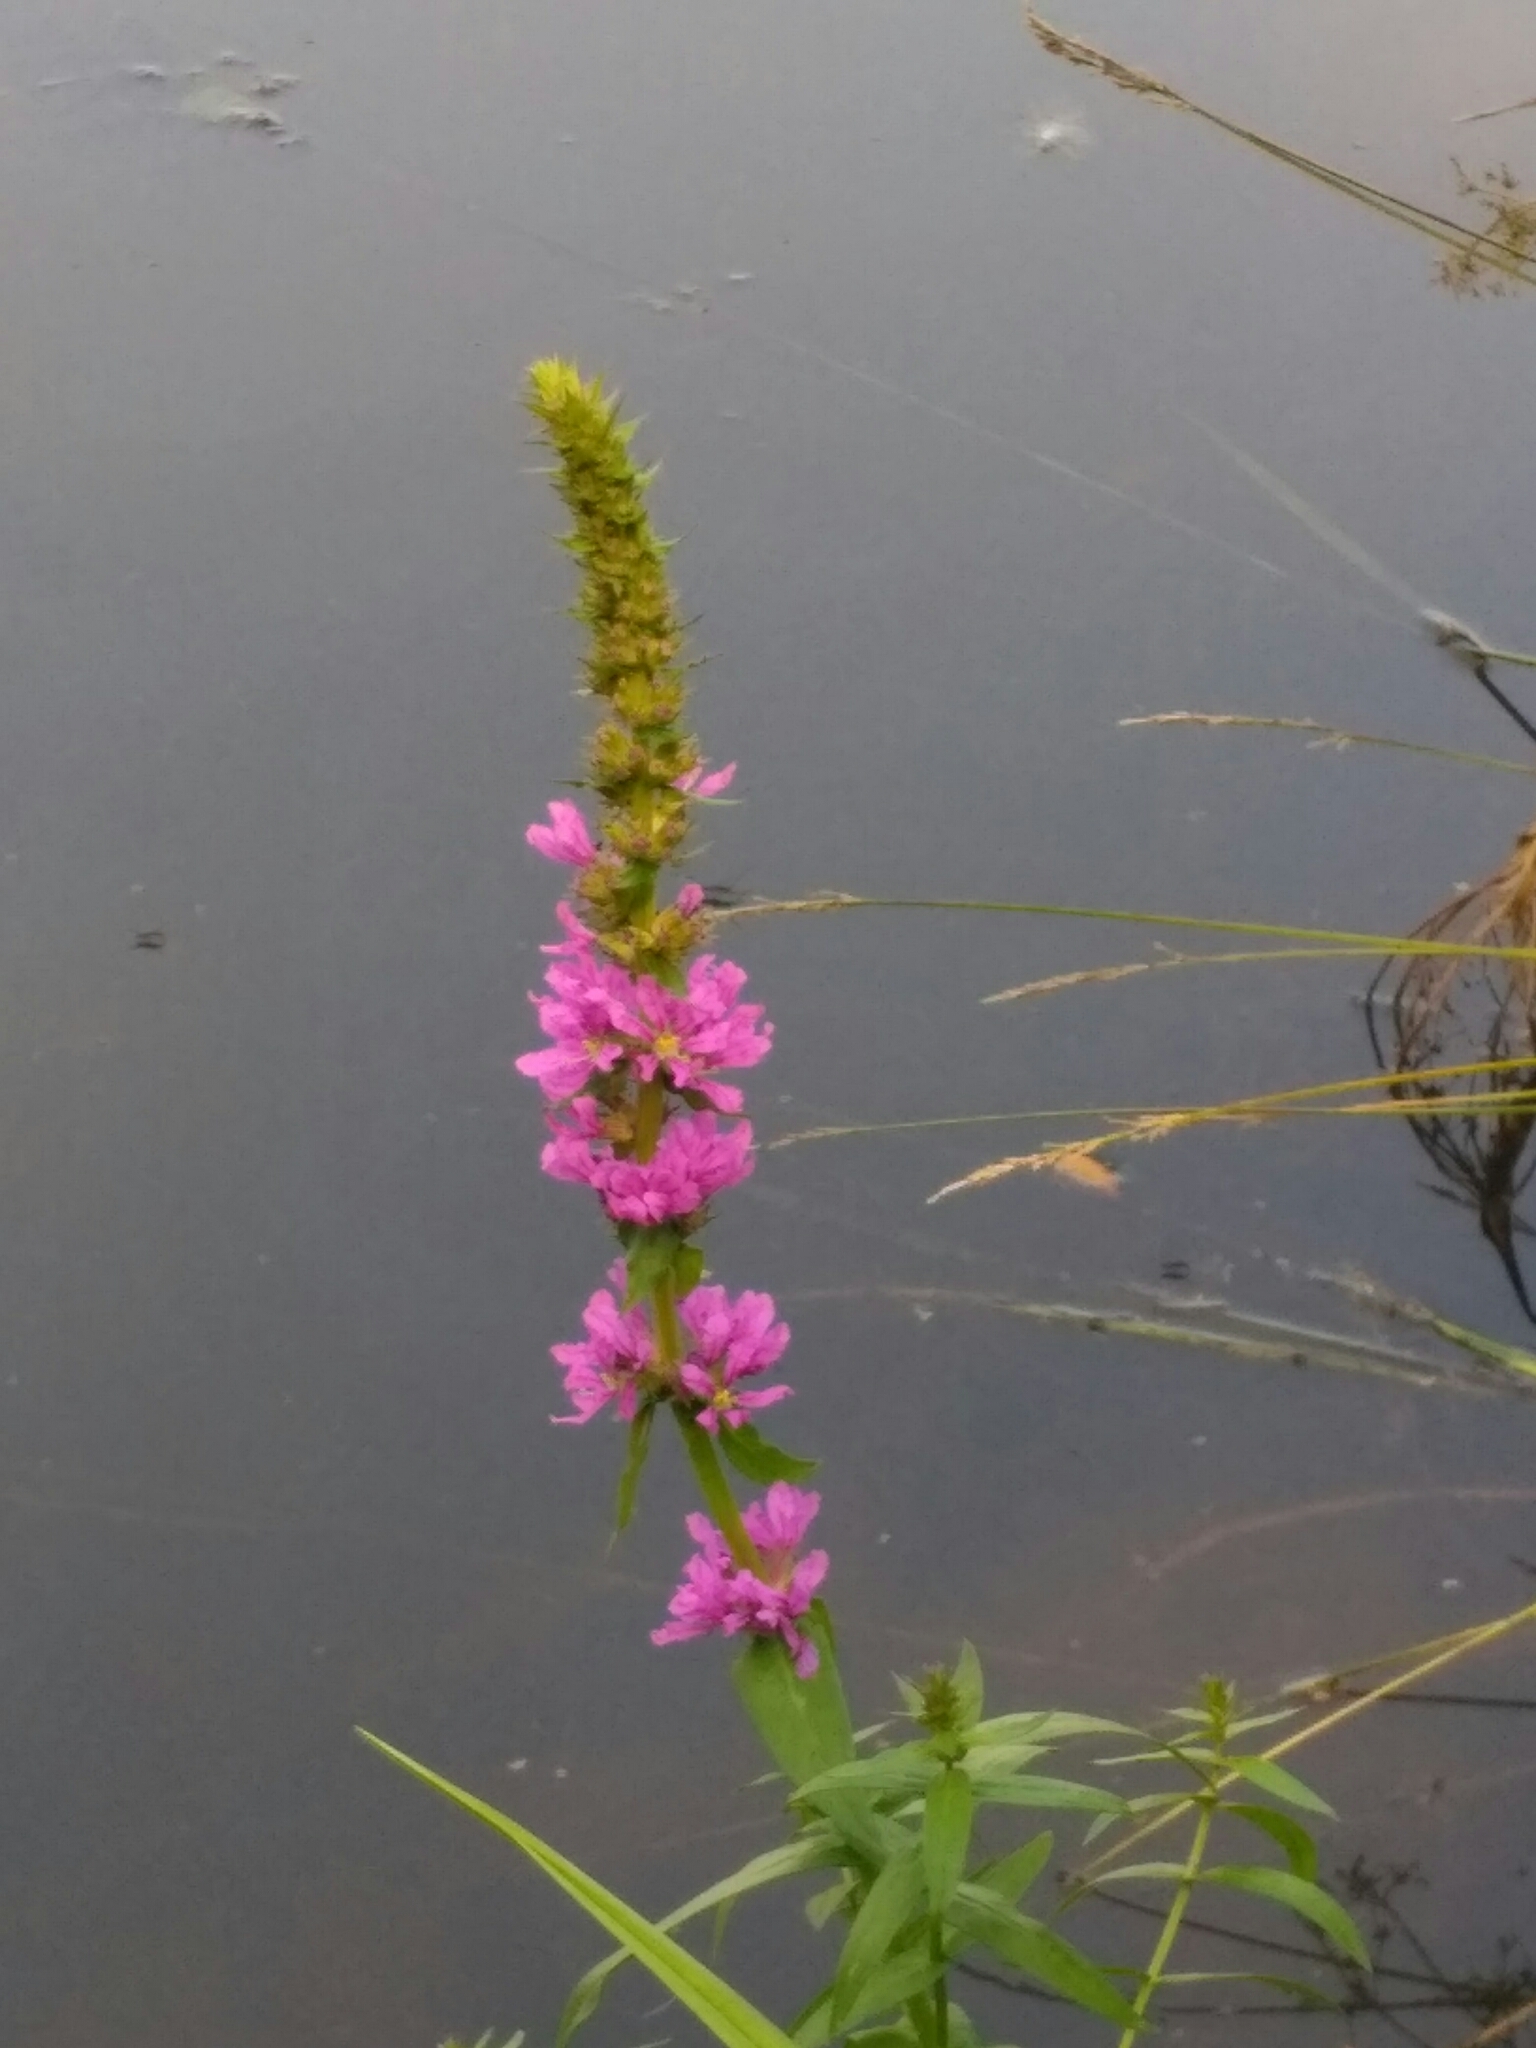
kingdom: Plantae
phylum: Tracheophyta
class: Magnoliopsida
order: Myrtales
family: Lythraceae
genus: Lythrum
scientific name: Lythrum salicaria
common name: Purple loosestrife
